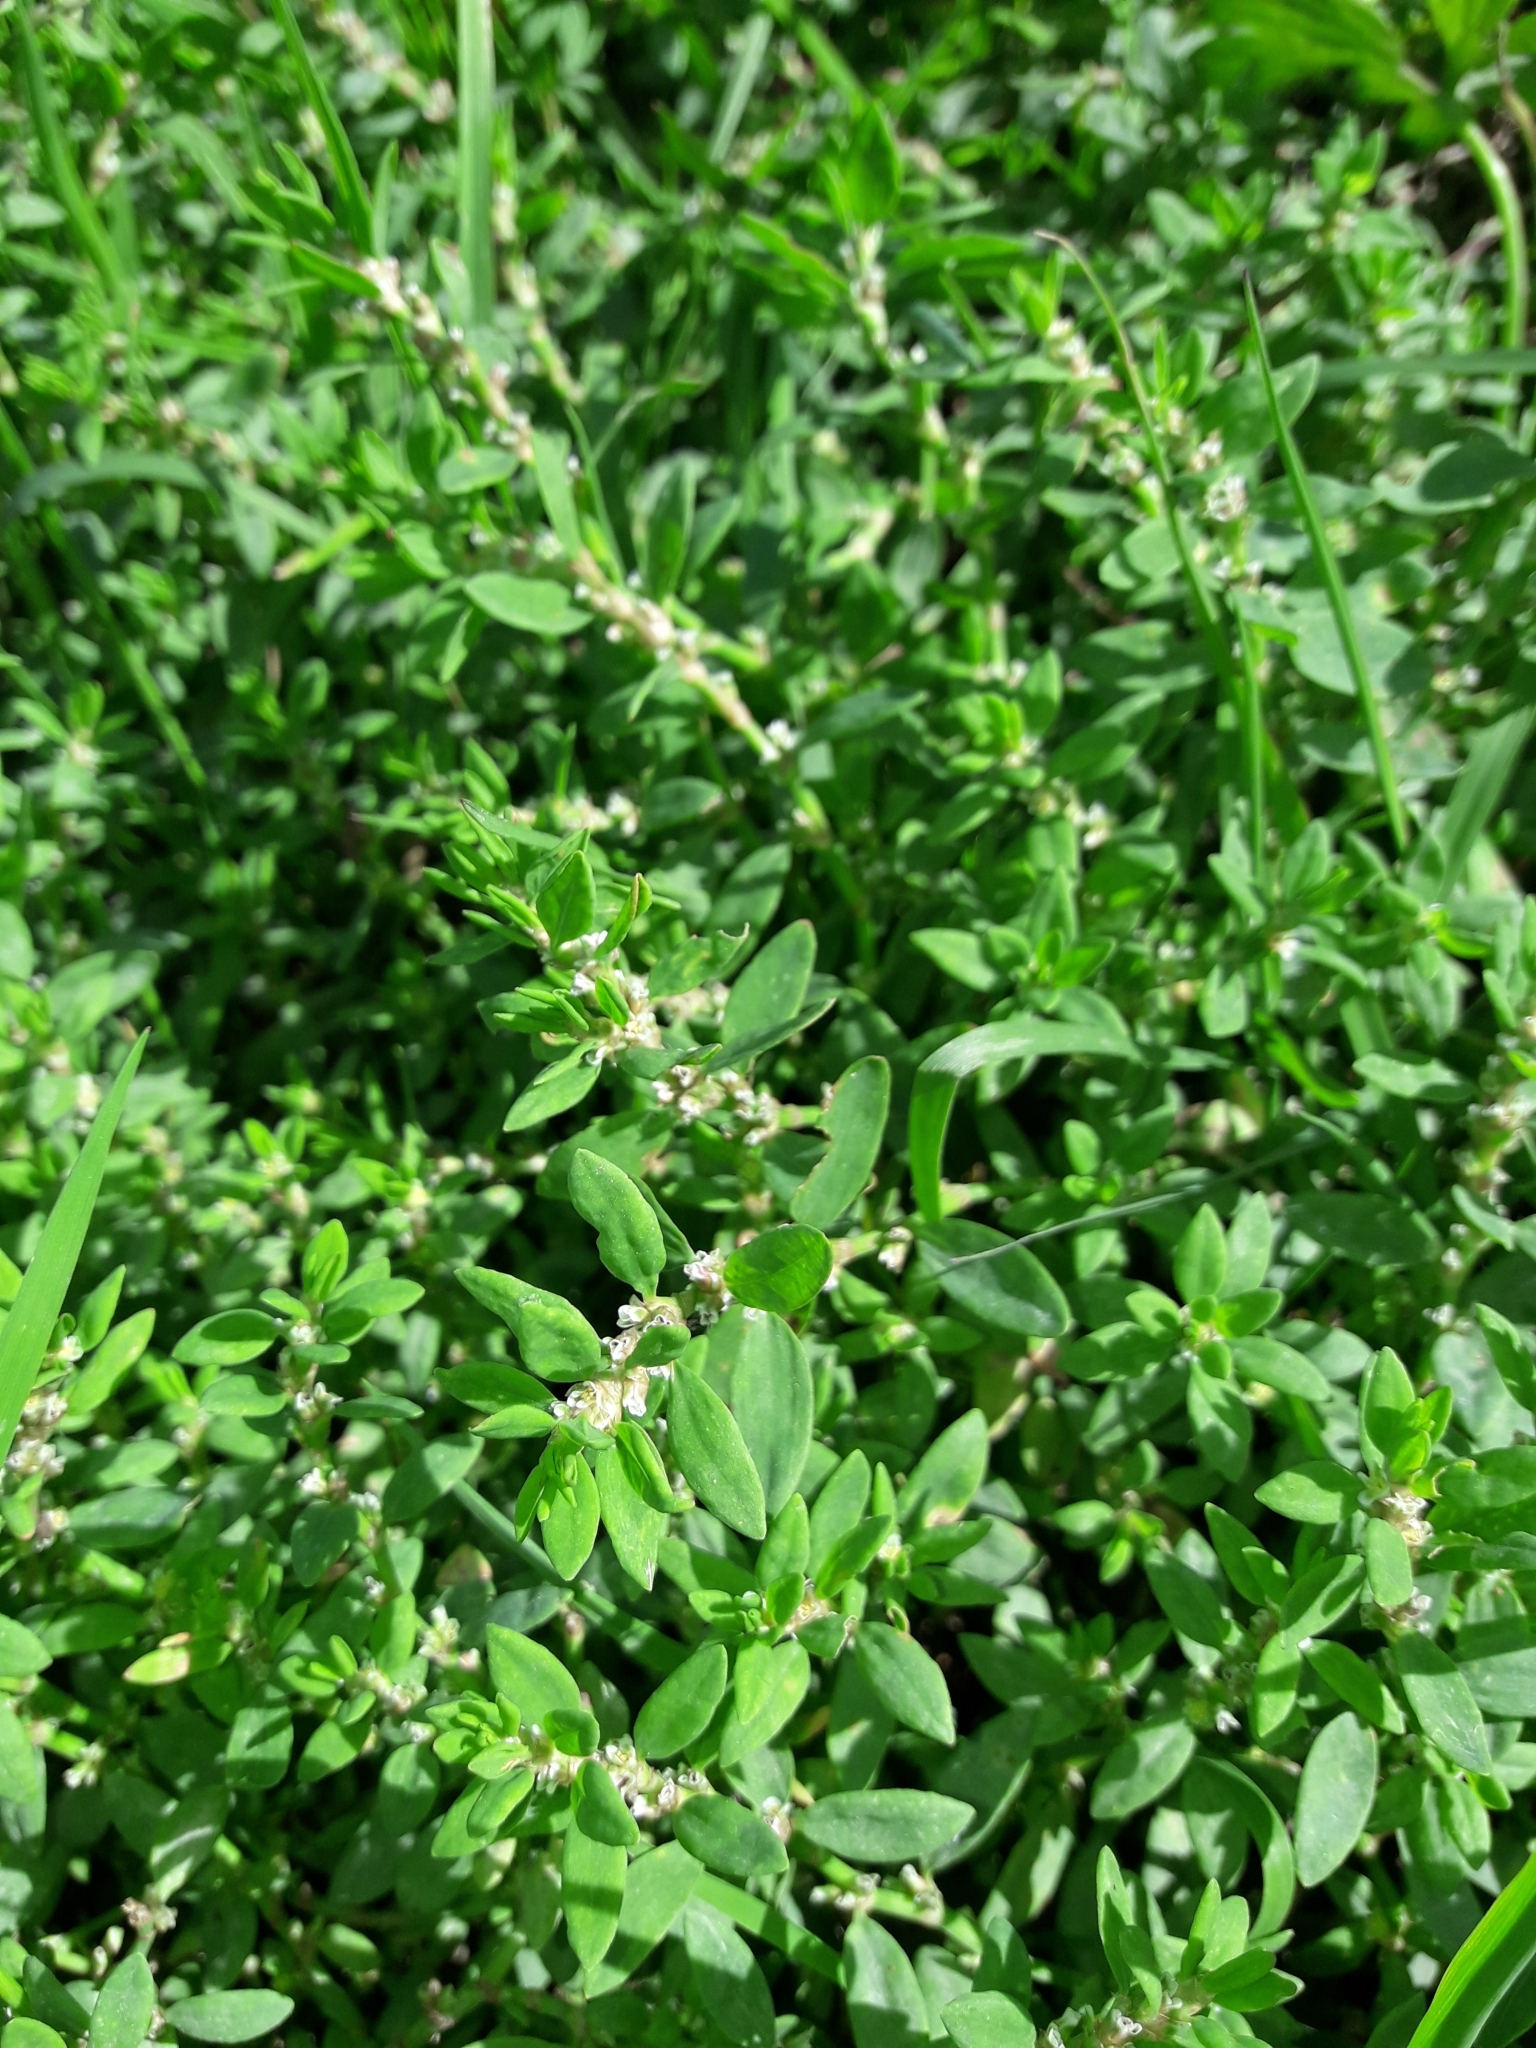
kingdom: Plantae
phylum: Tracheophyta
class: Magnoliopsida
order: Caryophyllales
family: Polygonaceae
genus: Polygonum
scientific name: Polygonum aviculare
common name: Prostrate knotweed
